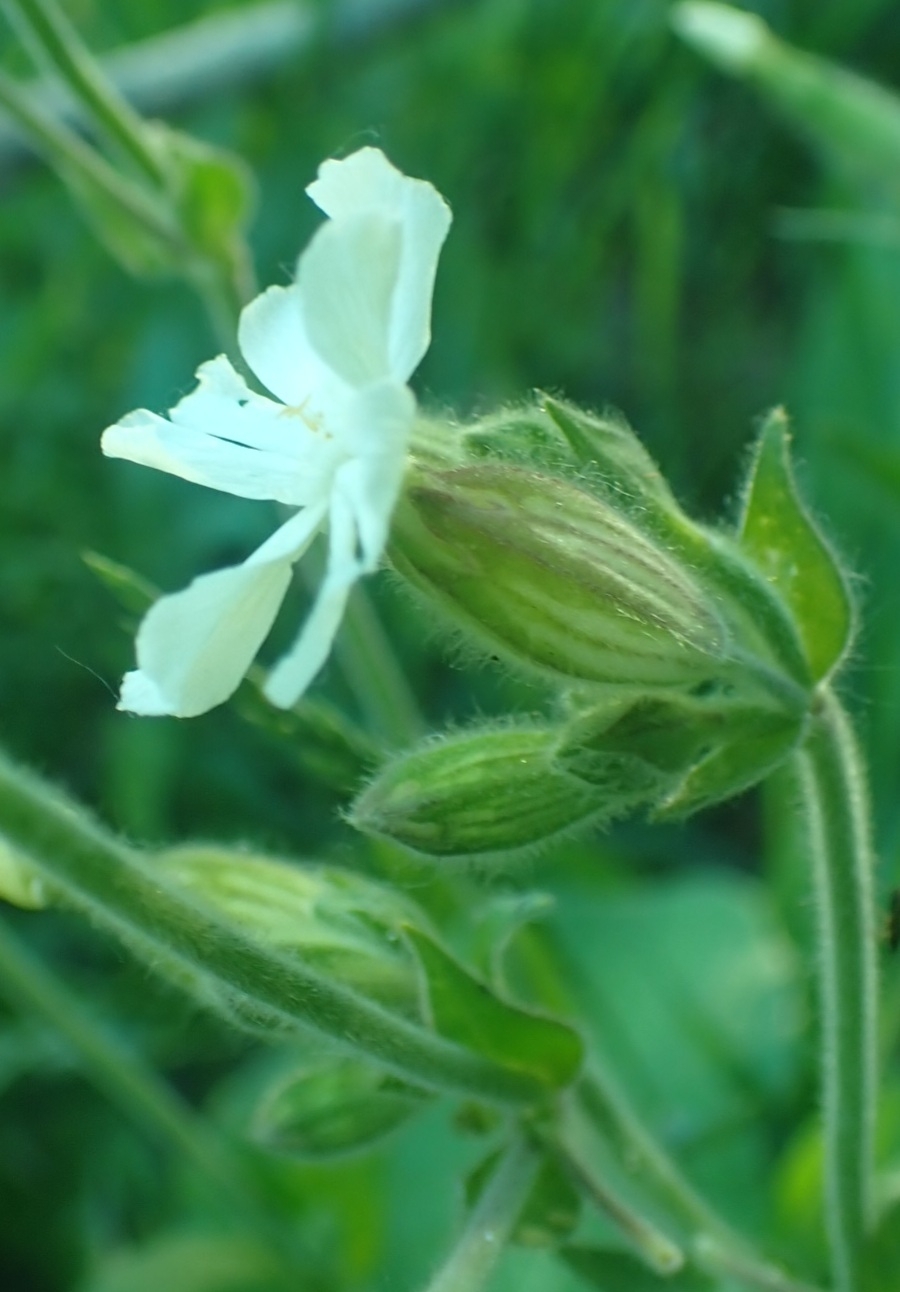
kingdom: Plantae
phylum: Tracheophyta
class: Magnoliopsida
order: Caryophyllales
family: Caryophyllaceae
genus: Silene
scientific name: Silene latifolia
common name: White campion
